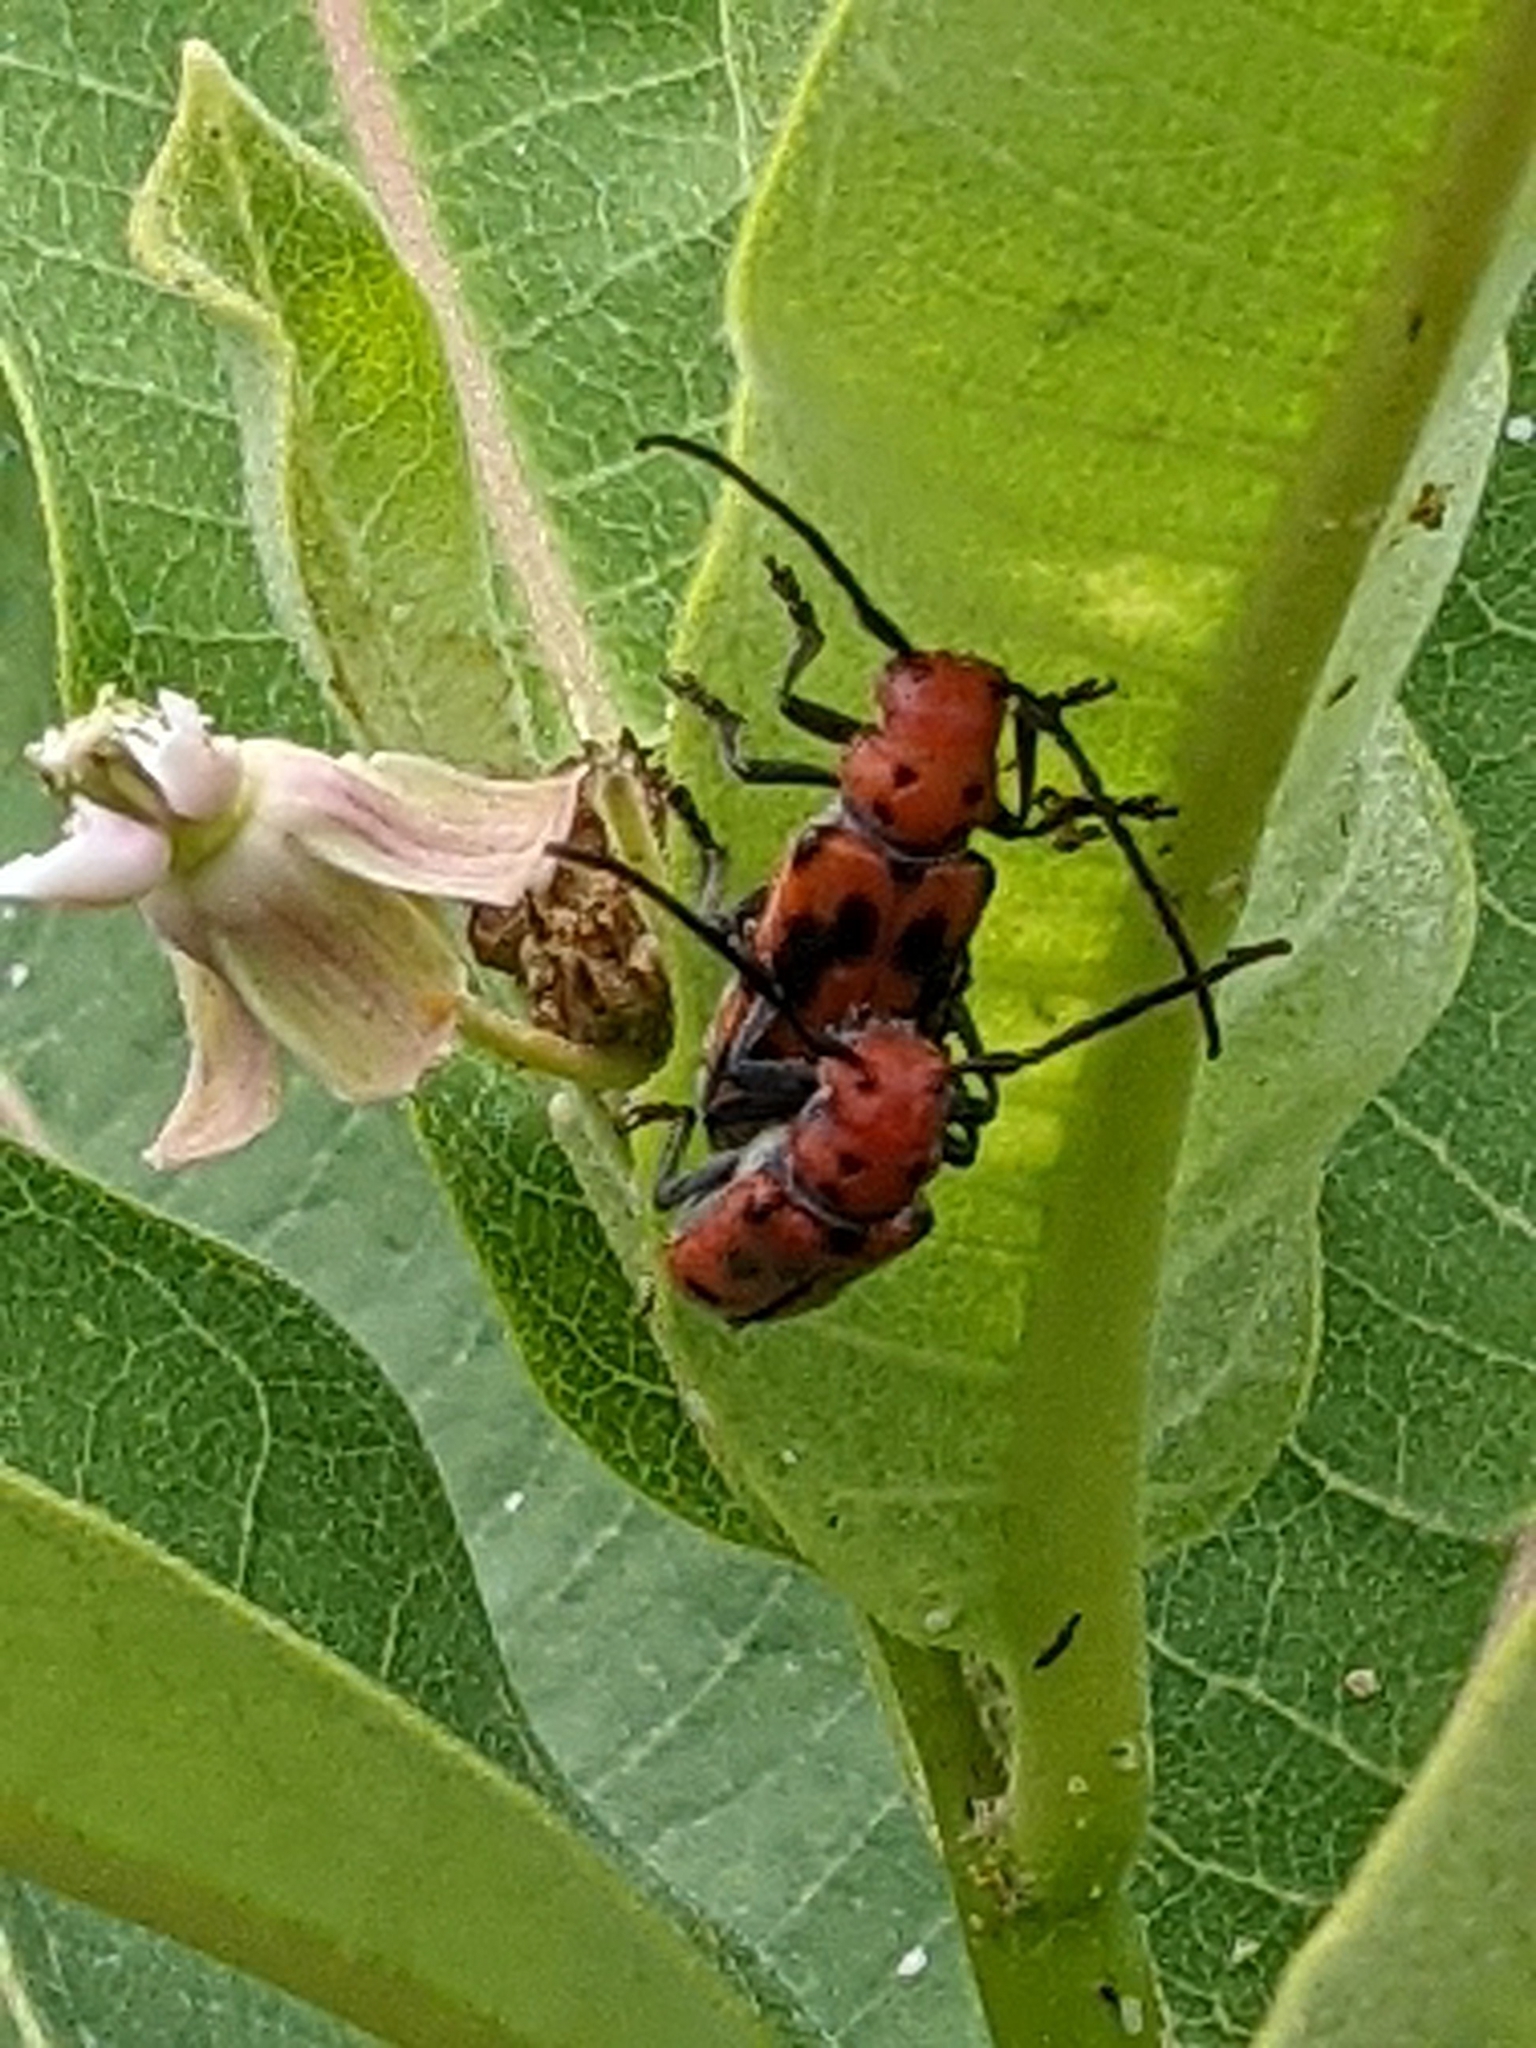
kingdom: Animalia
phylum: Arthropoda
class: Insecta
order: Coleoptera
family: Cerambycidae
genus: Tetraopes
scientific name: Tetraopes tetrophthalmus
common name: Red milkweed beetle
